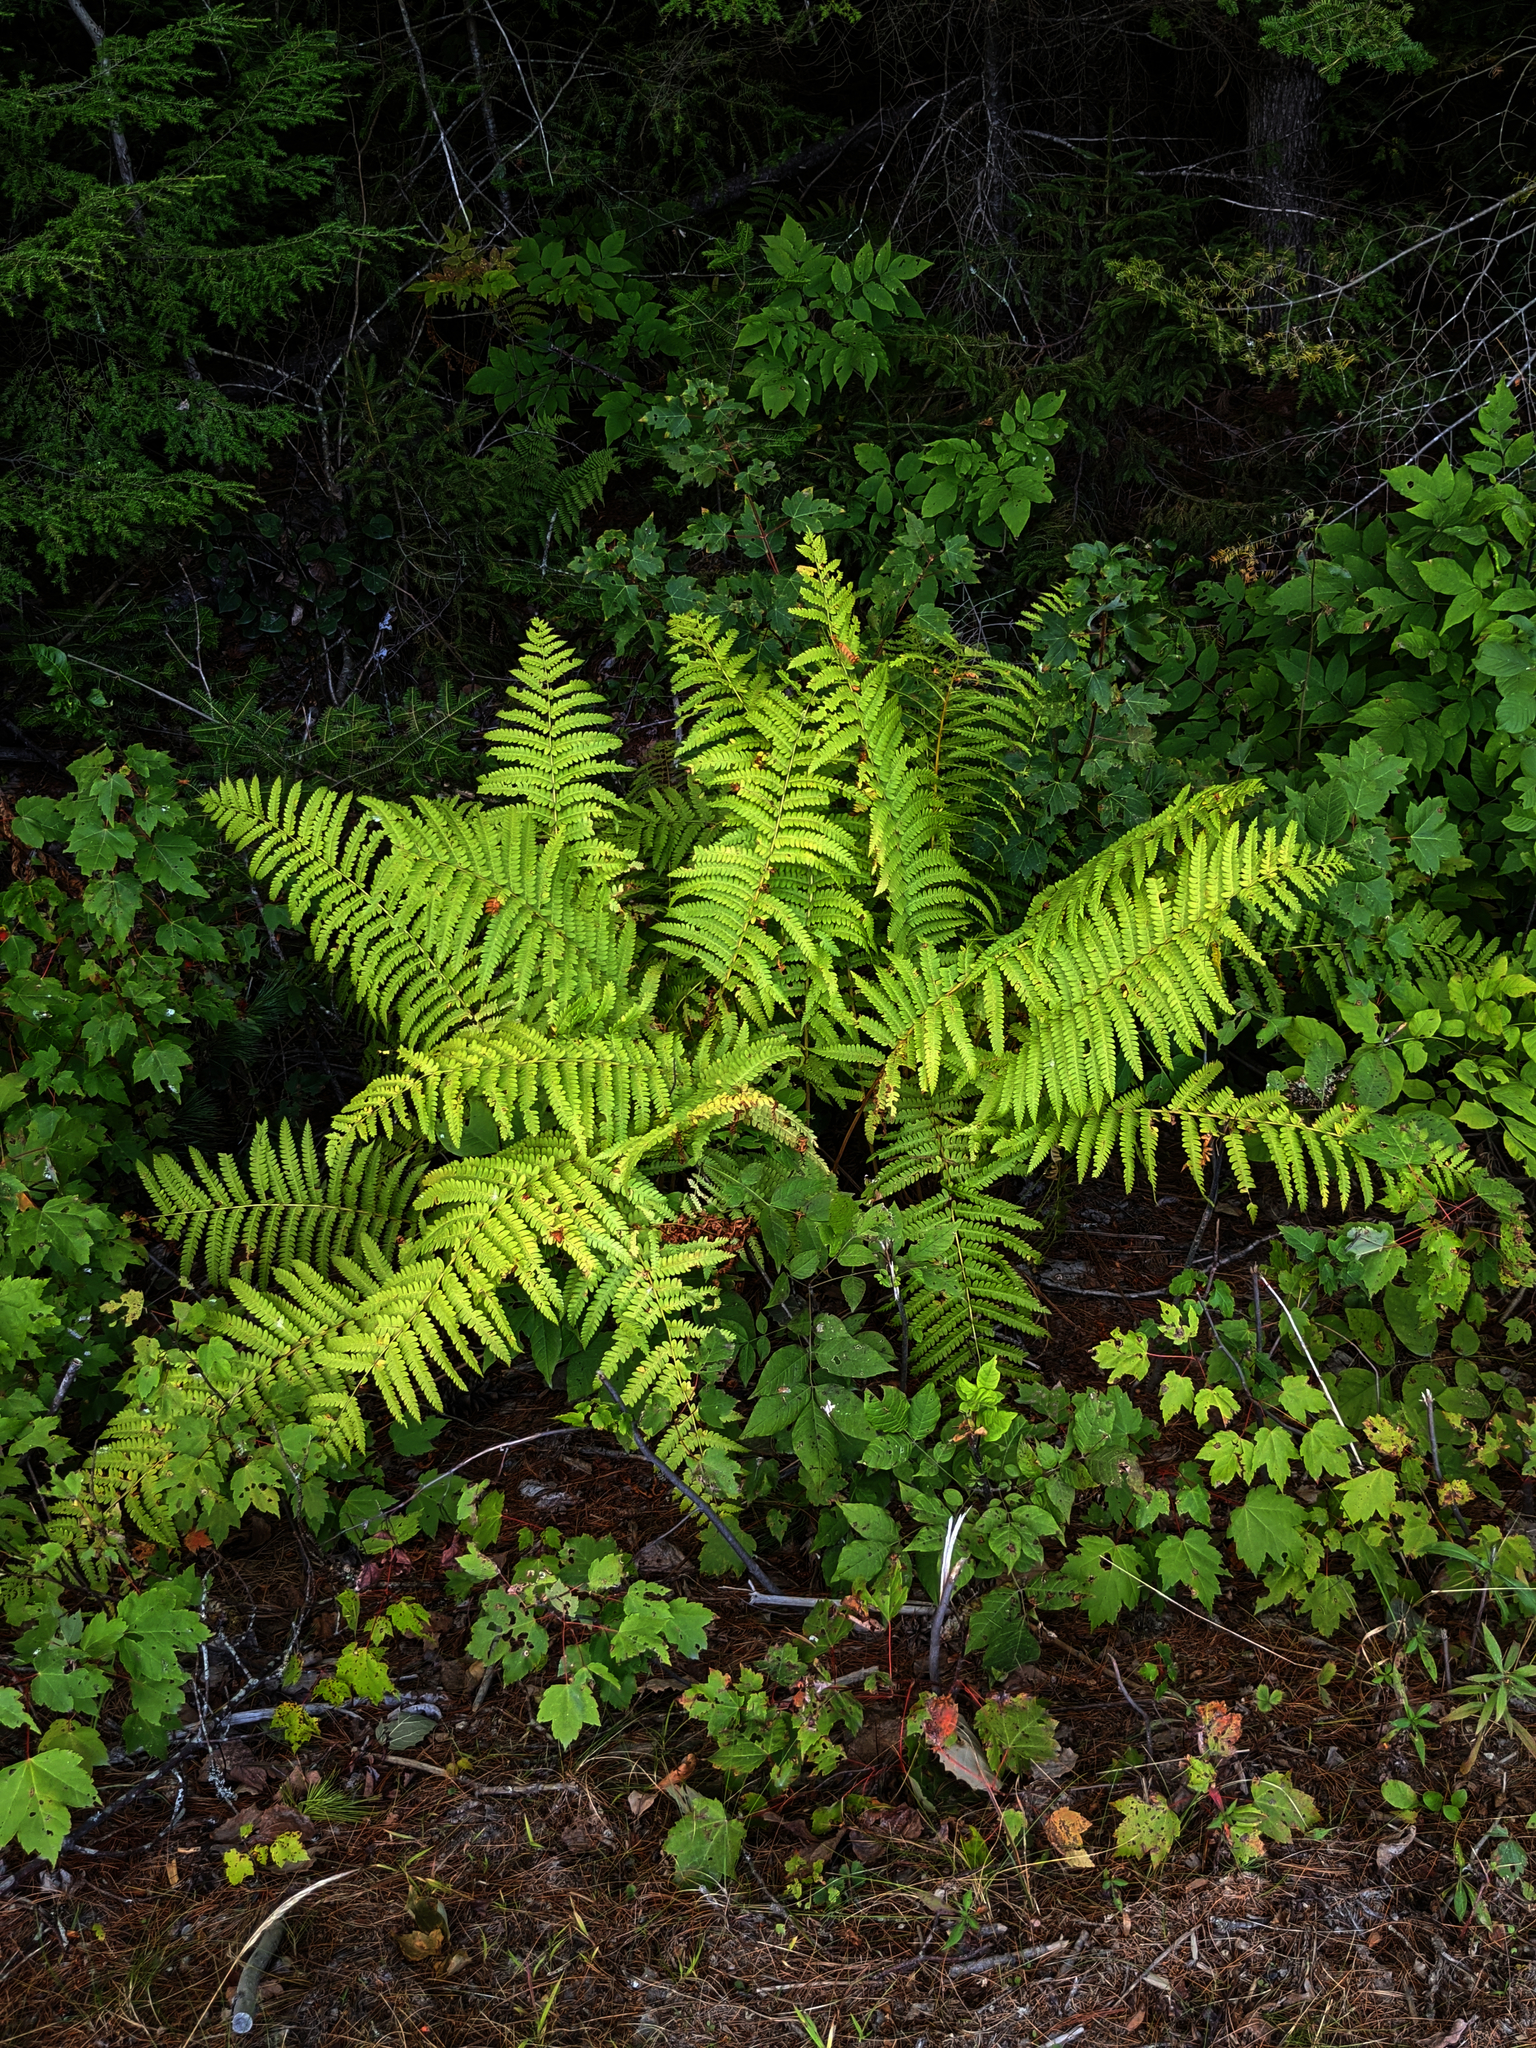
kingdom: Plantae
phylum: Tracheophyta
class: Polypodiopsida
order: Osmundales
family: Osmundaceae
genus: Osmundastrum
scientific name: Osmundastrum cinnamomeum
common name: Cinnamon fern
